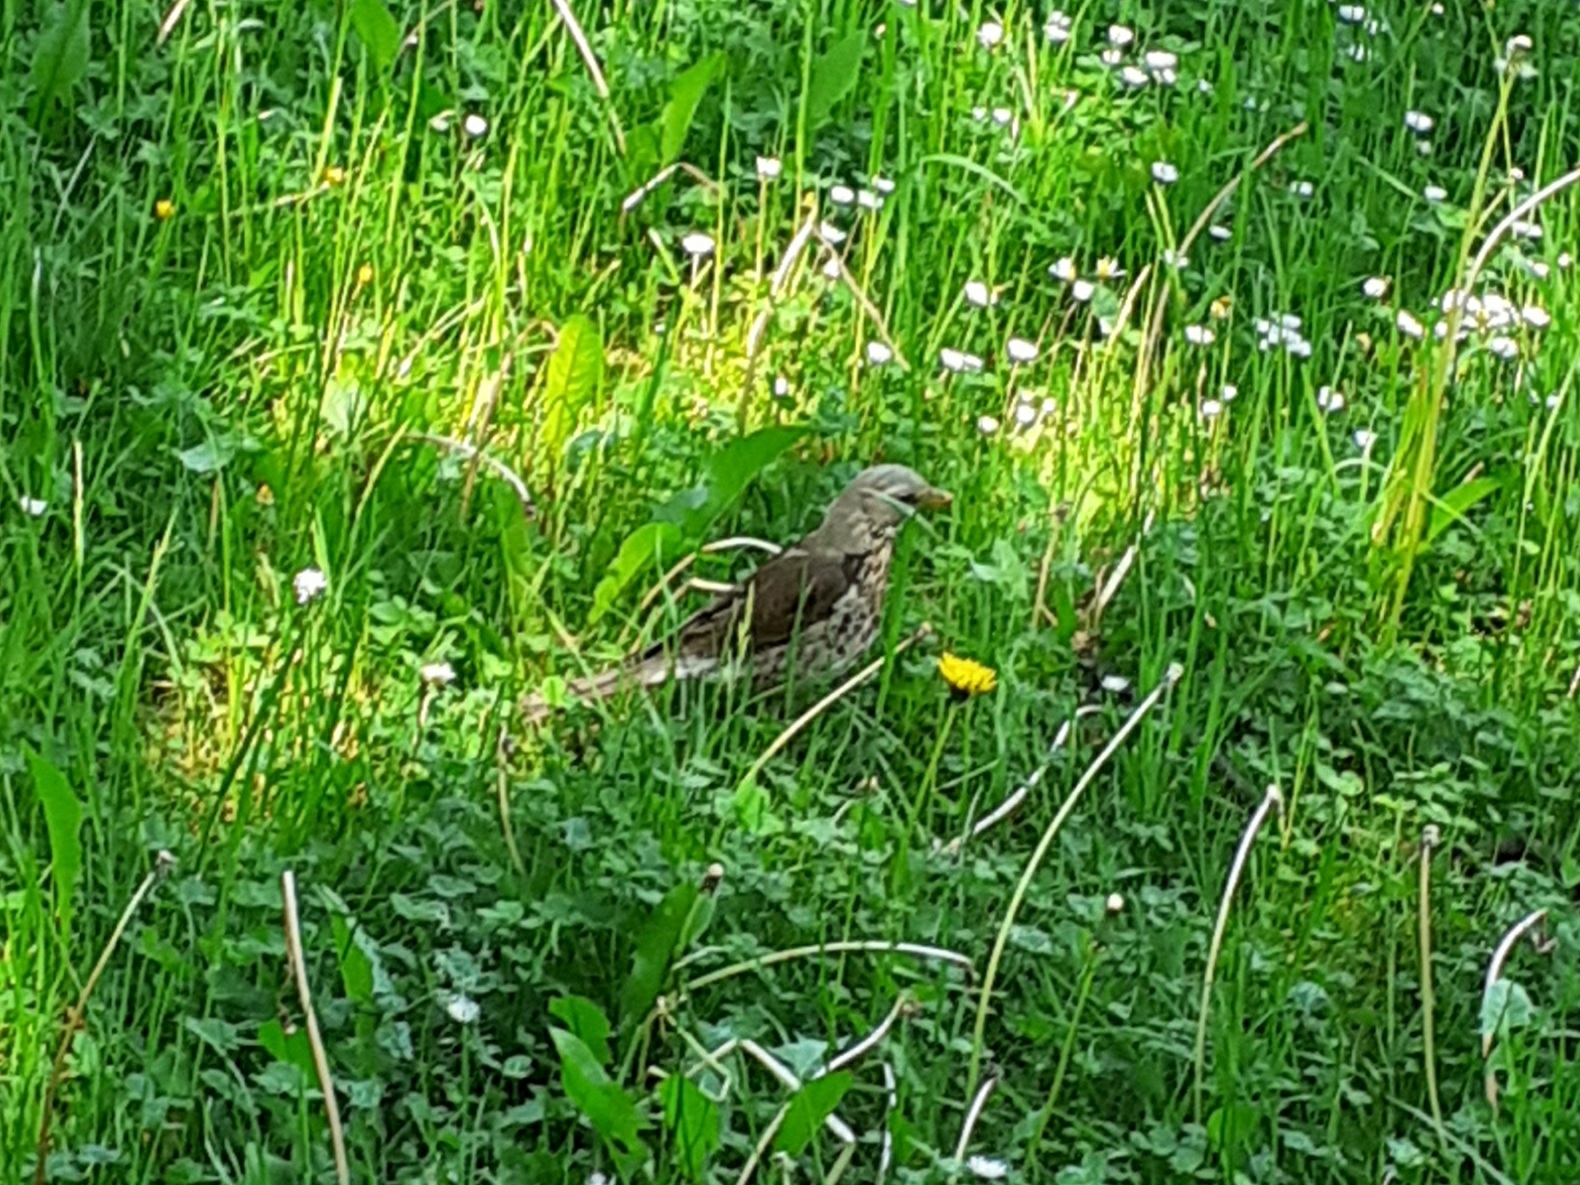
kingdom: Animalia
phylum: Chordata
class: Aves
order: Passeriformes
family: Turdidae
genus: Turdus
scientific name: Turdus pilaris
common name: Fieldfare
